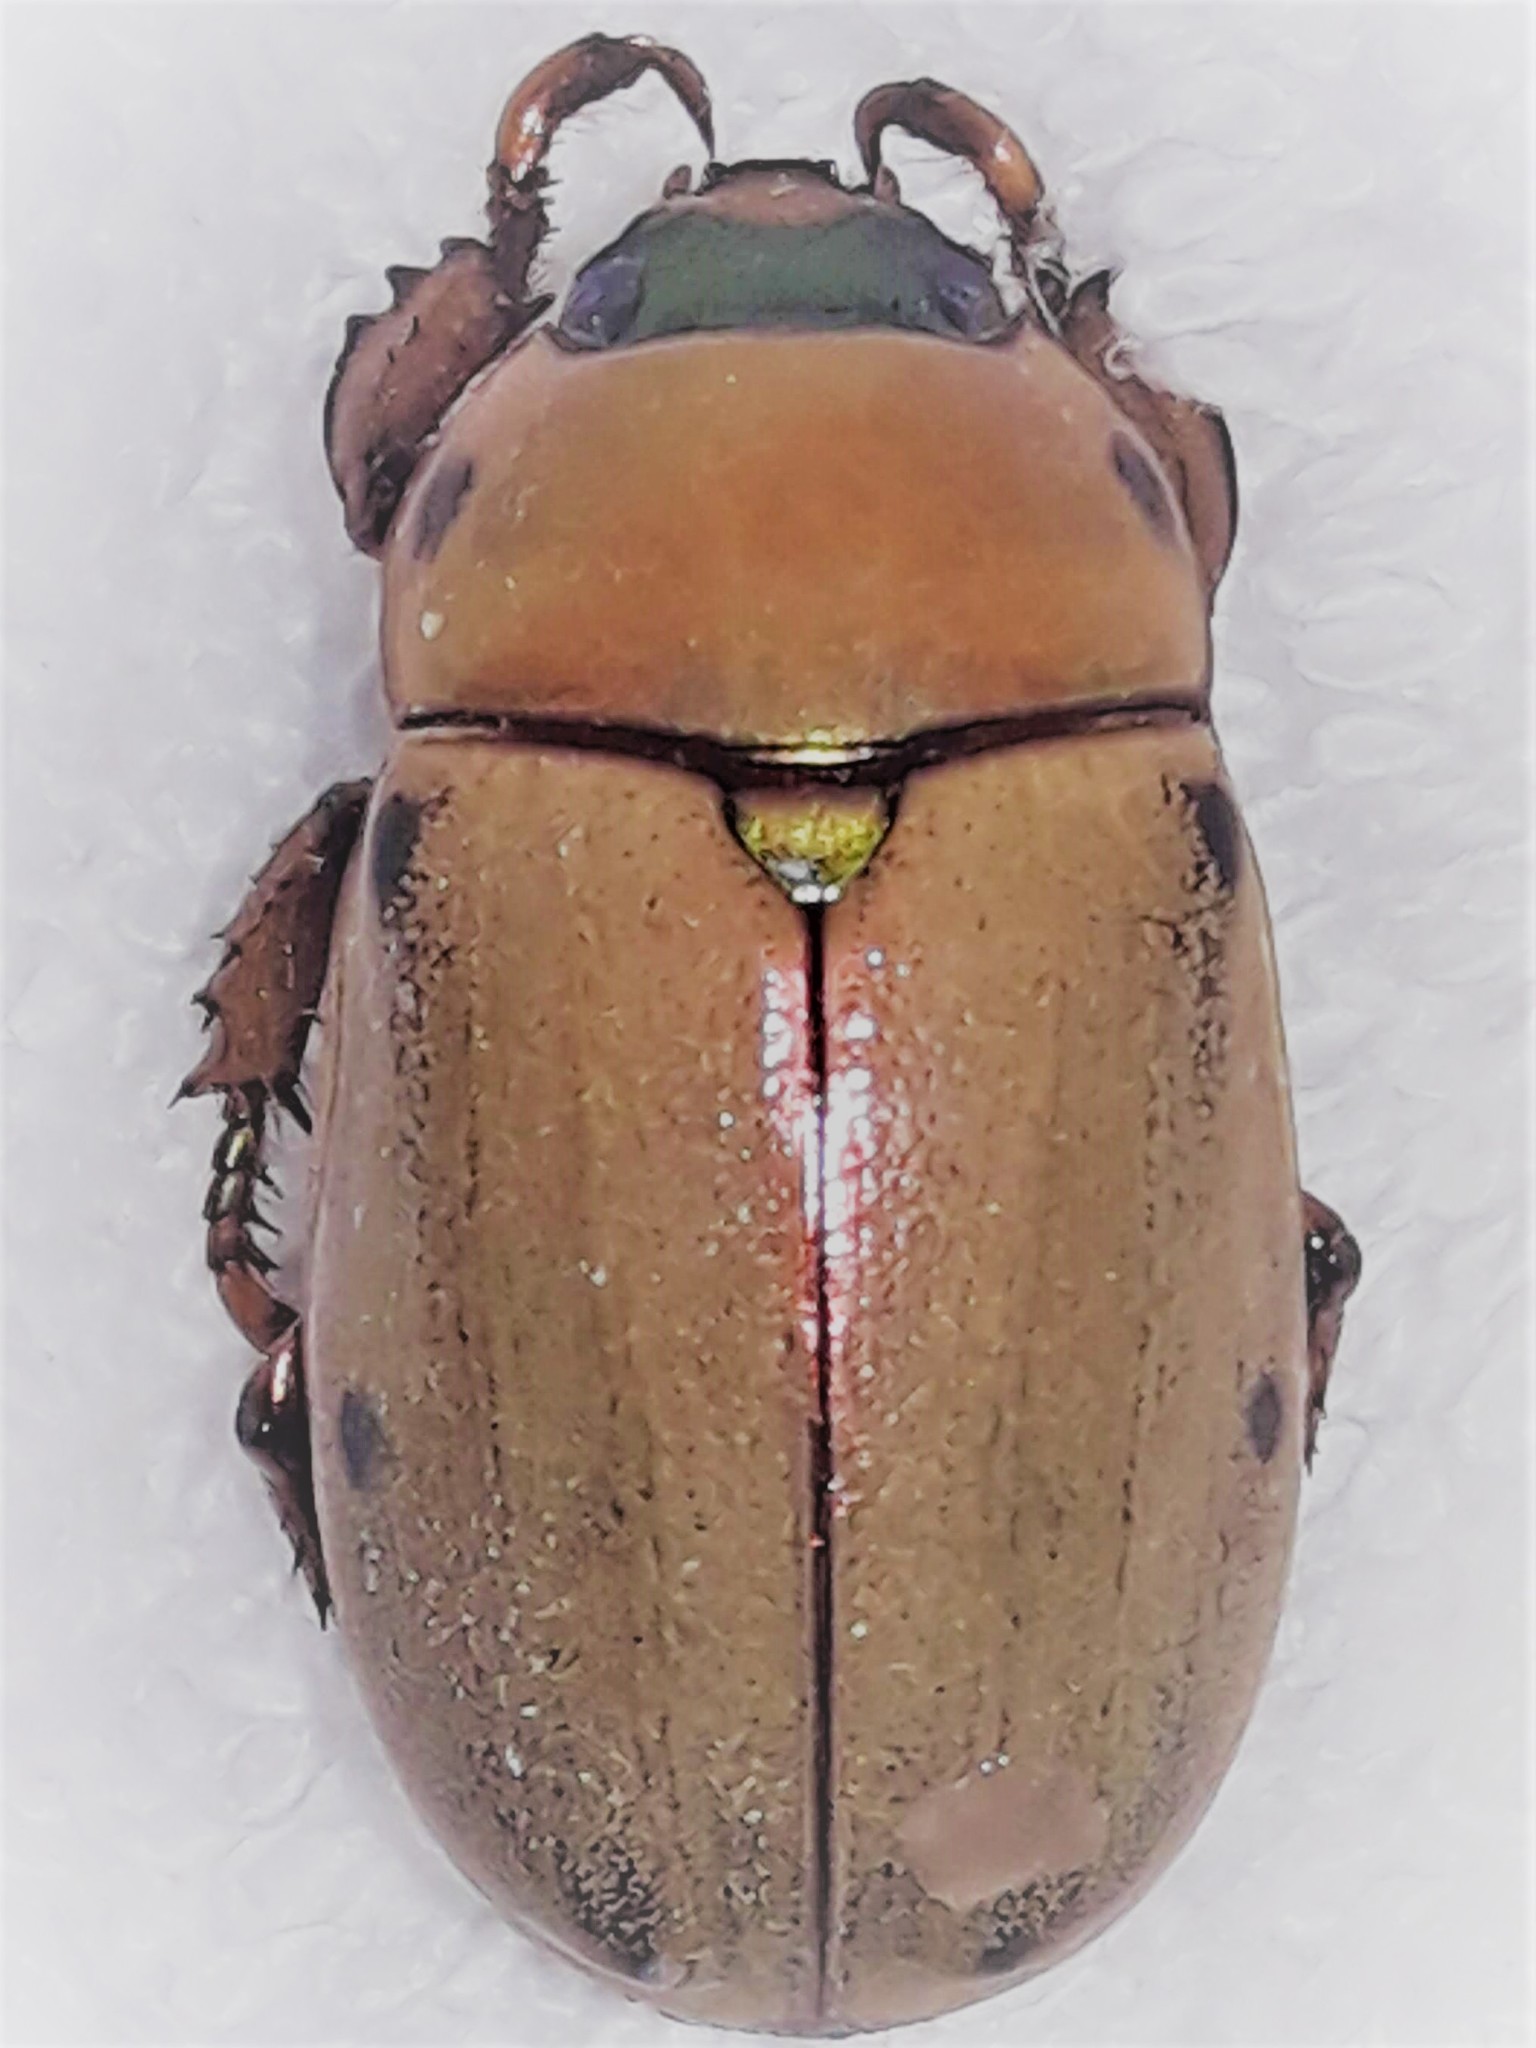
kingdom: Animalia
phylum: Arthropoda
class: Insecta
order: Coleoptera
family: Scarabaeidae
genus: Pelidnota
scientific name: Pelidnota costaricensis
